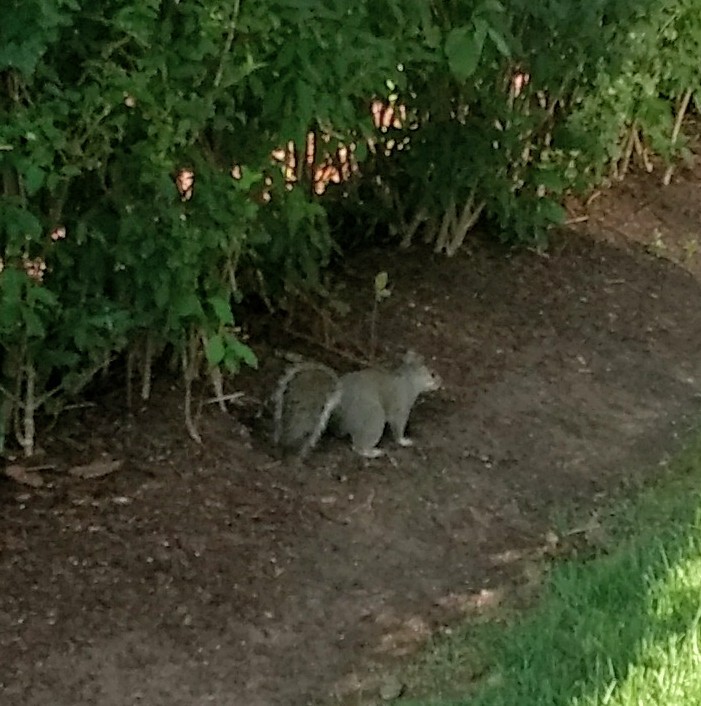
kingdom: Animalia
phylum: Chordata
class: Mammalia
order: Rodentia
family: Sciuridae
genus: Sciurus
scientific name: Sciurus carolinensis
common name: Eastern gray squirrel
